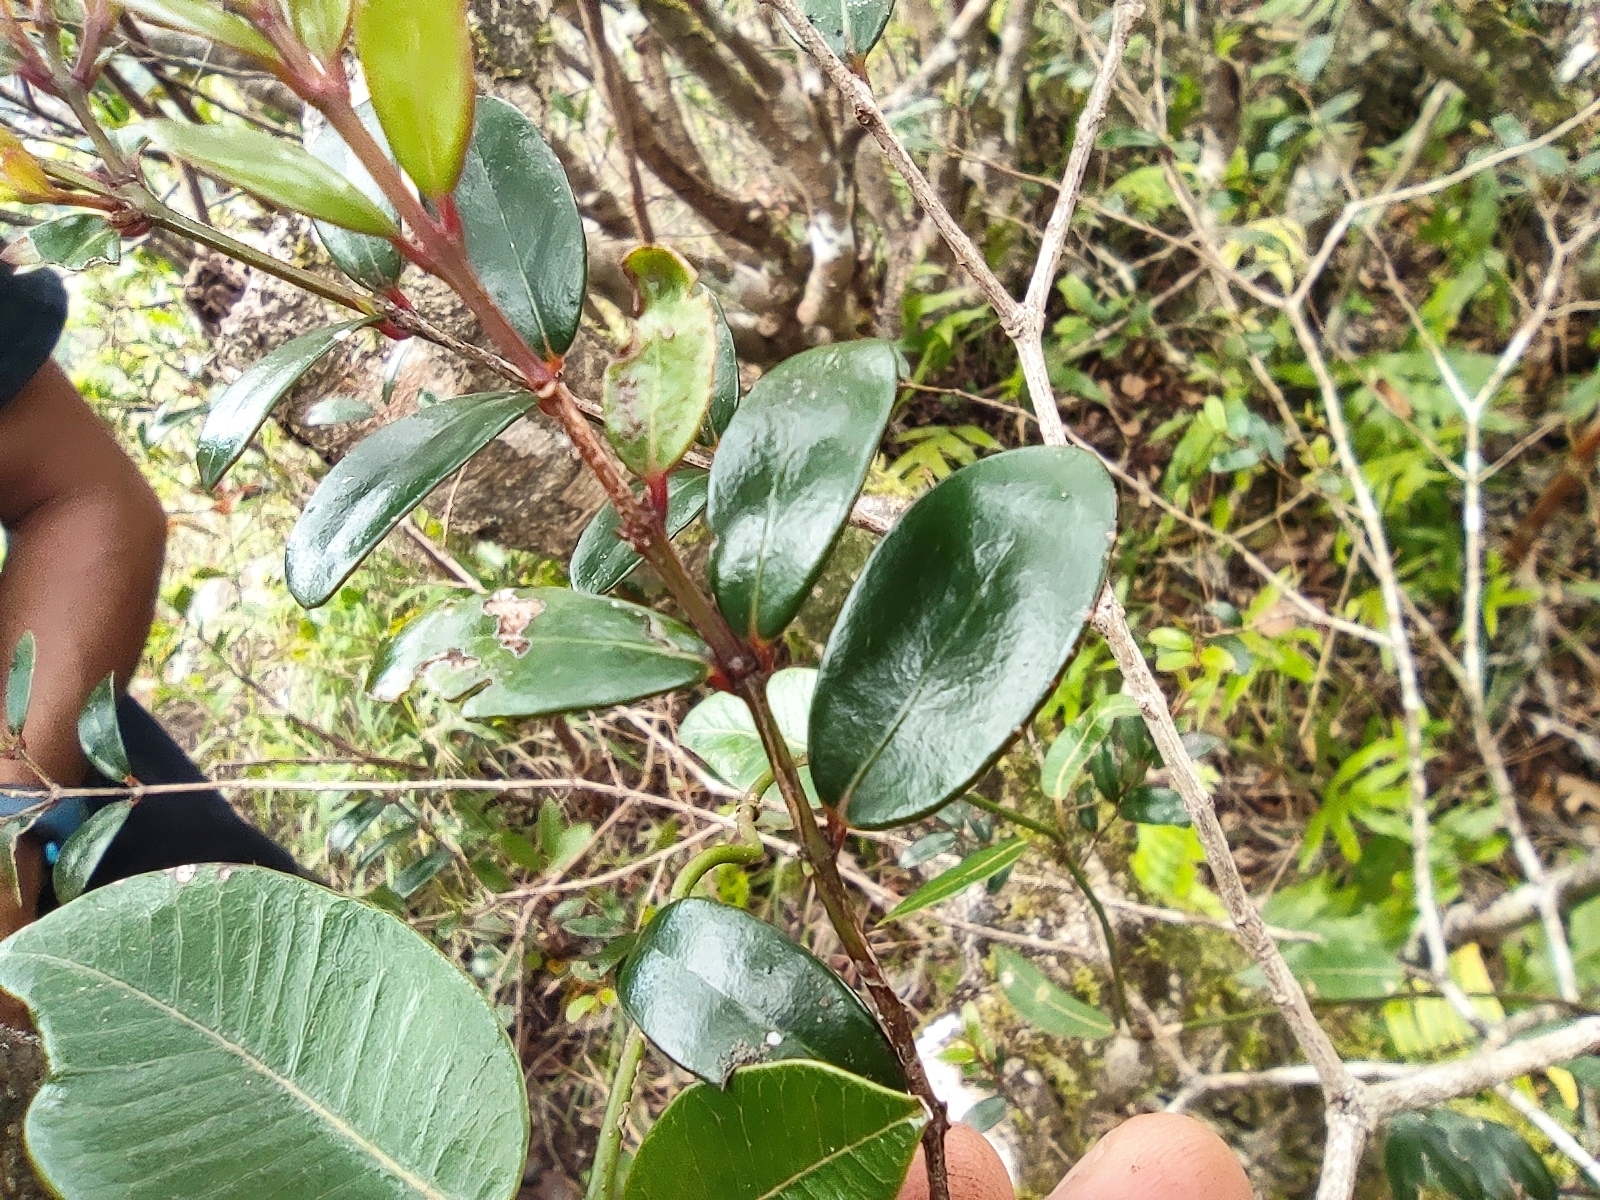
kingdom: Plantae
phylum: Tracheophyta
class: Magnoliopsida
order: Celastrales
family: Celastraceae
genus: Pleurostylia
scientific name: Pleurostylia pachyphloea
